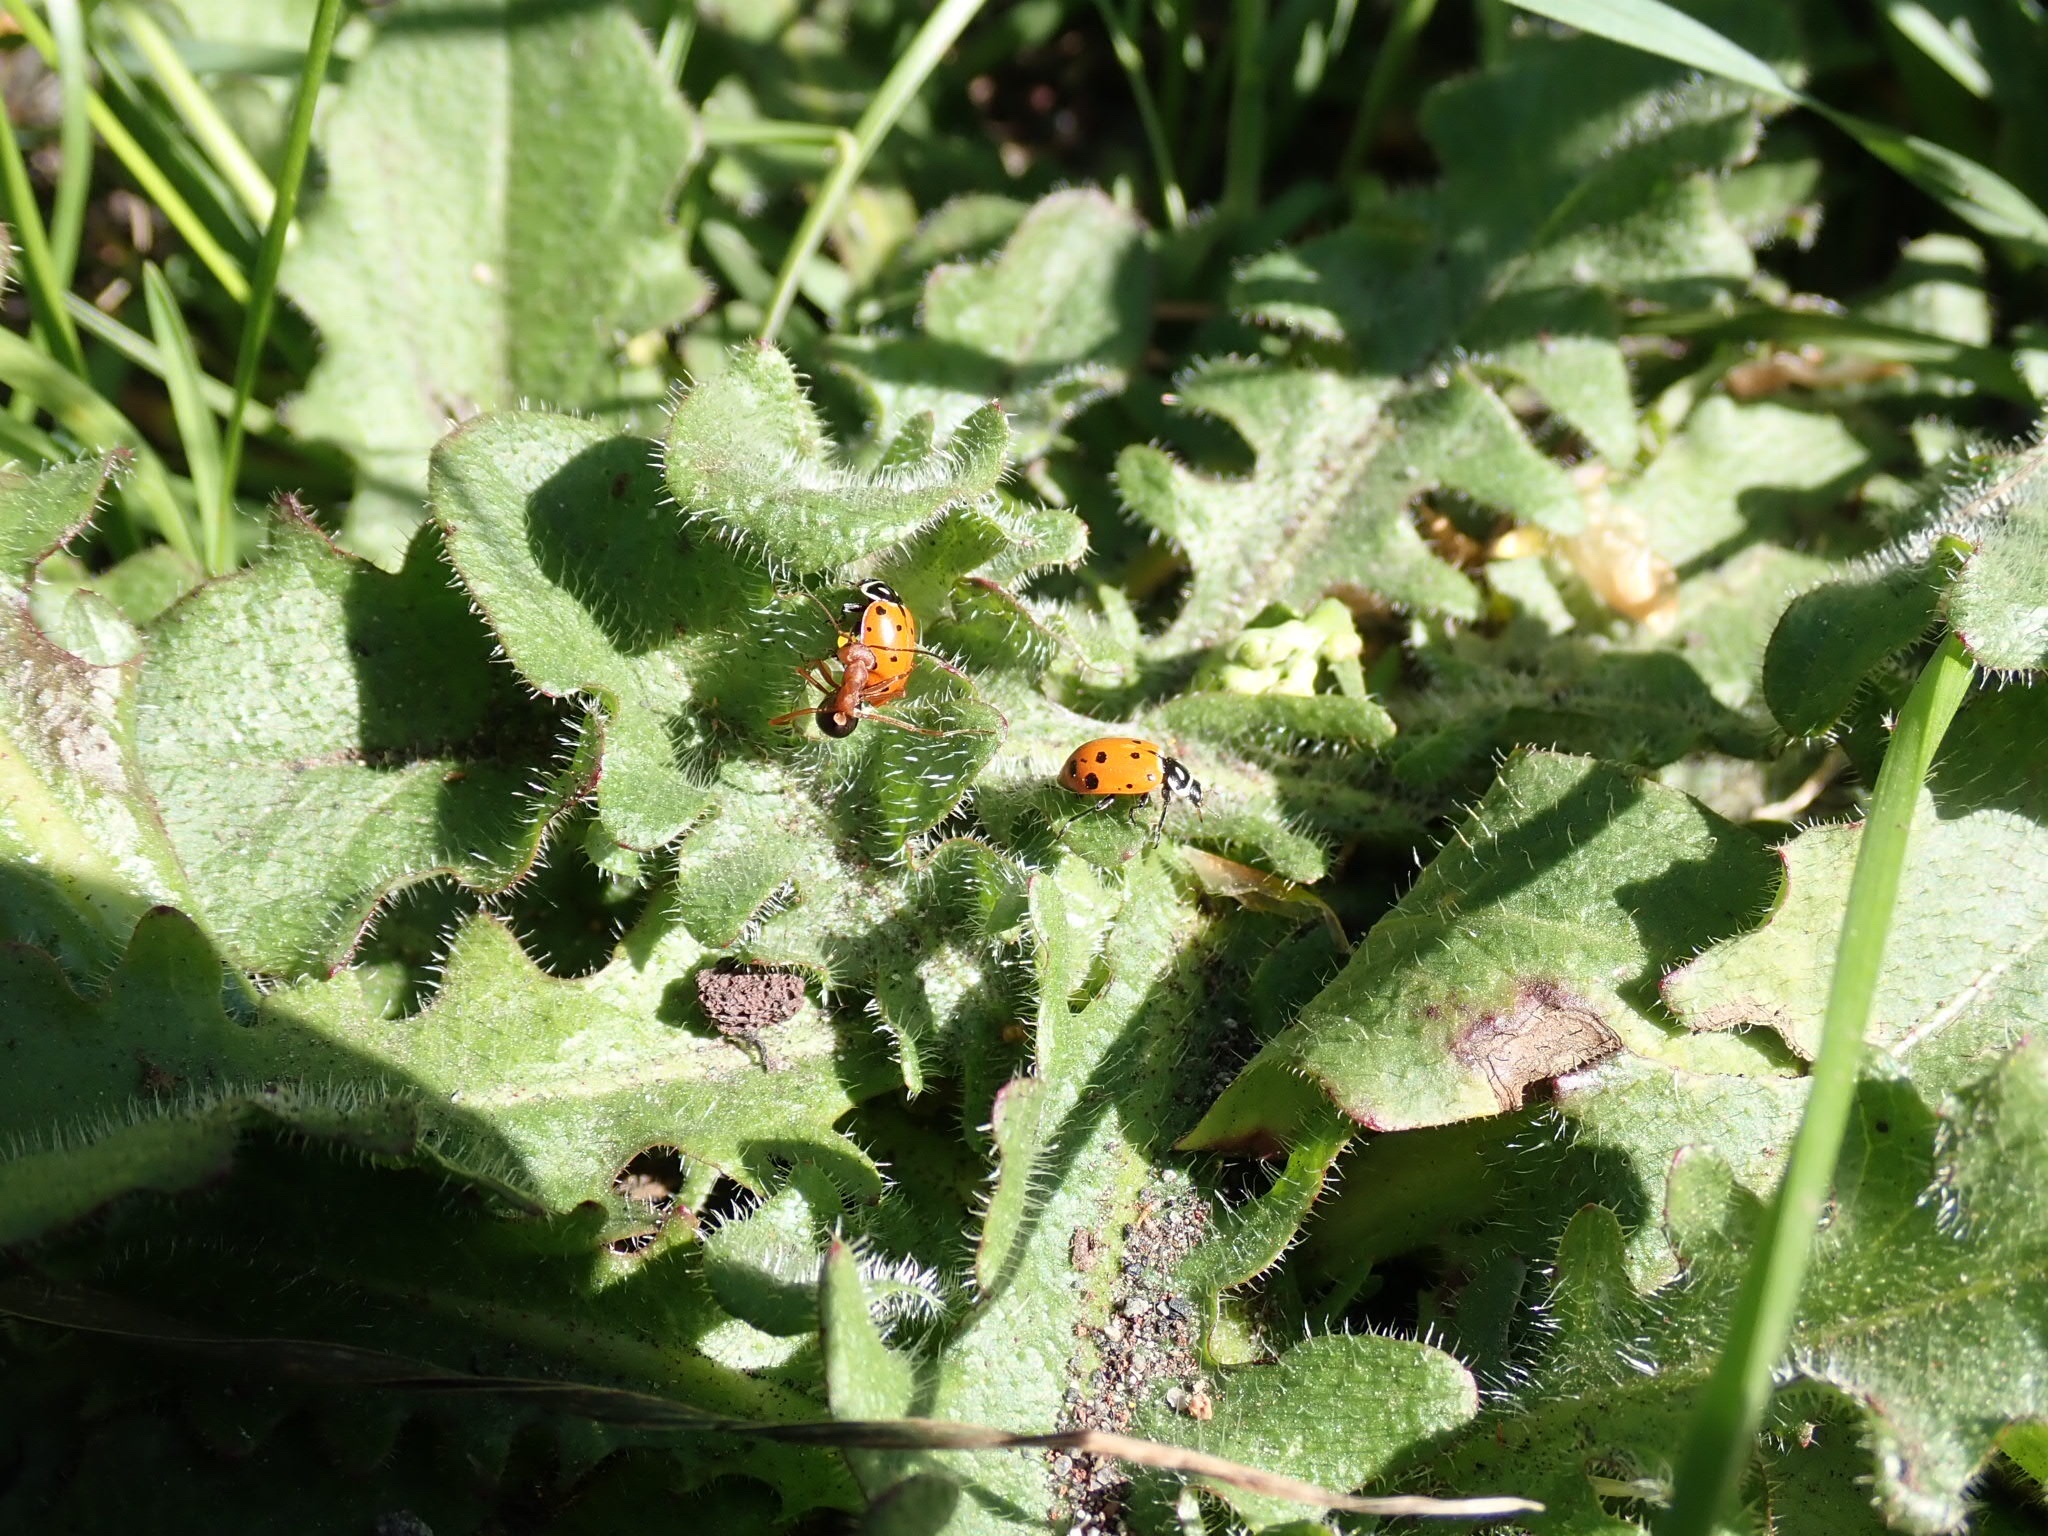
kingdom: Animalia
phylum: Arthropoda
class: Insecta
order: Coleoptera
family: Coccinellidae
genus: Hippodamia
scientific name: Hippodamia convergens
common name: Convergent lady beetle
